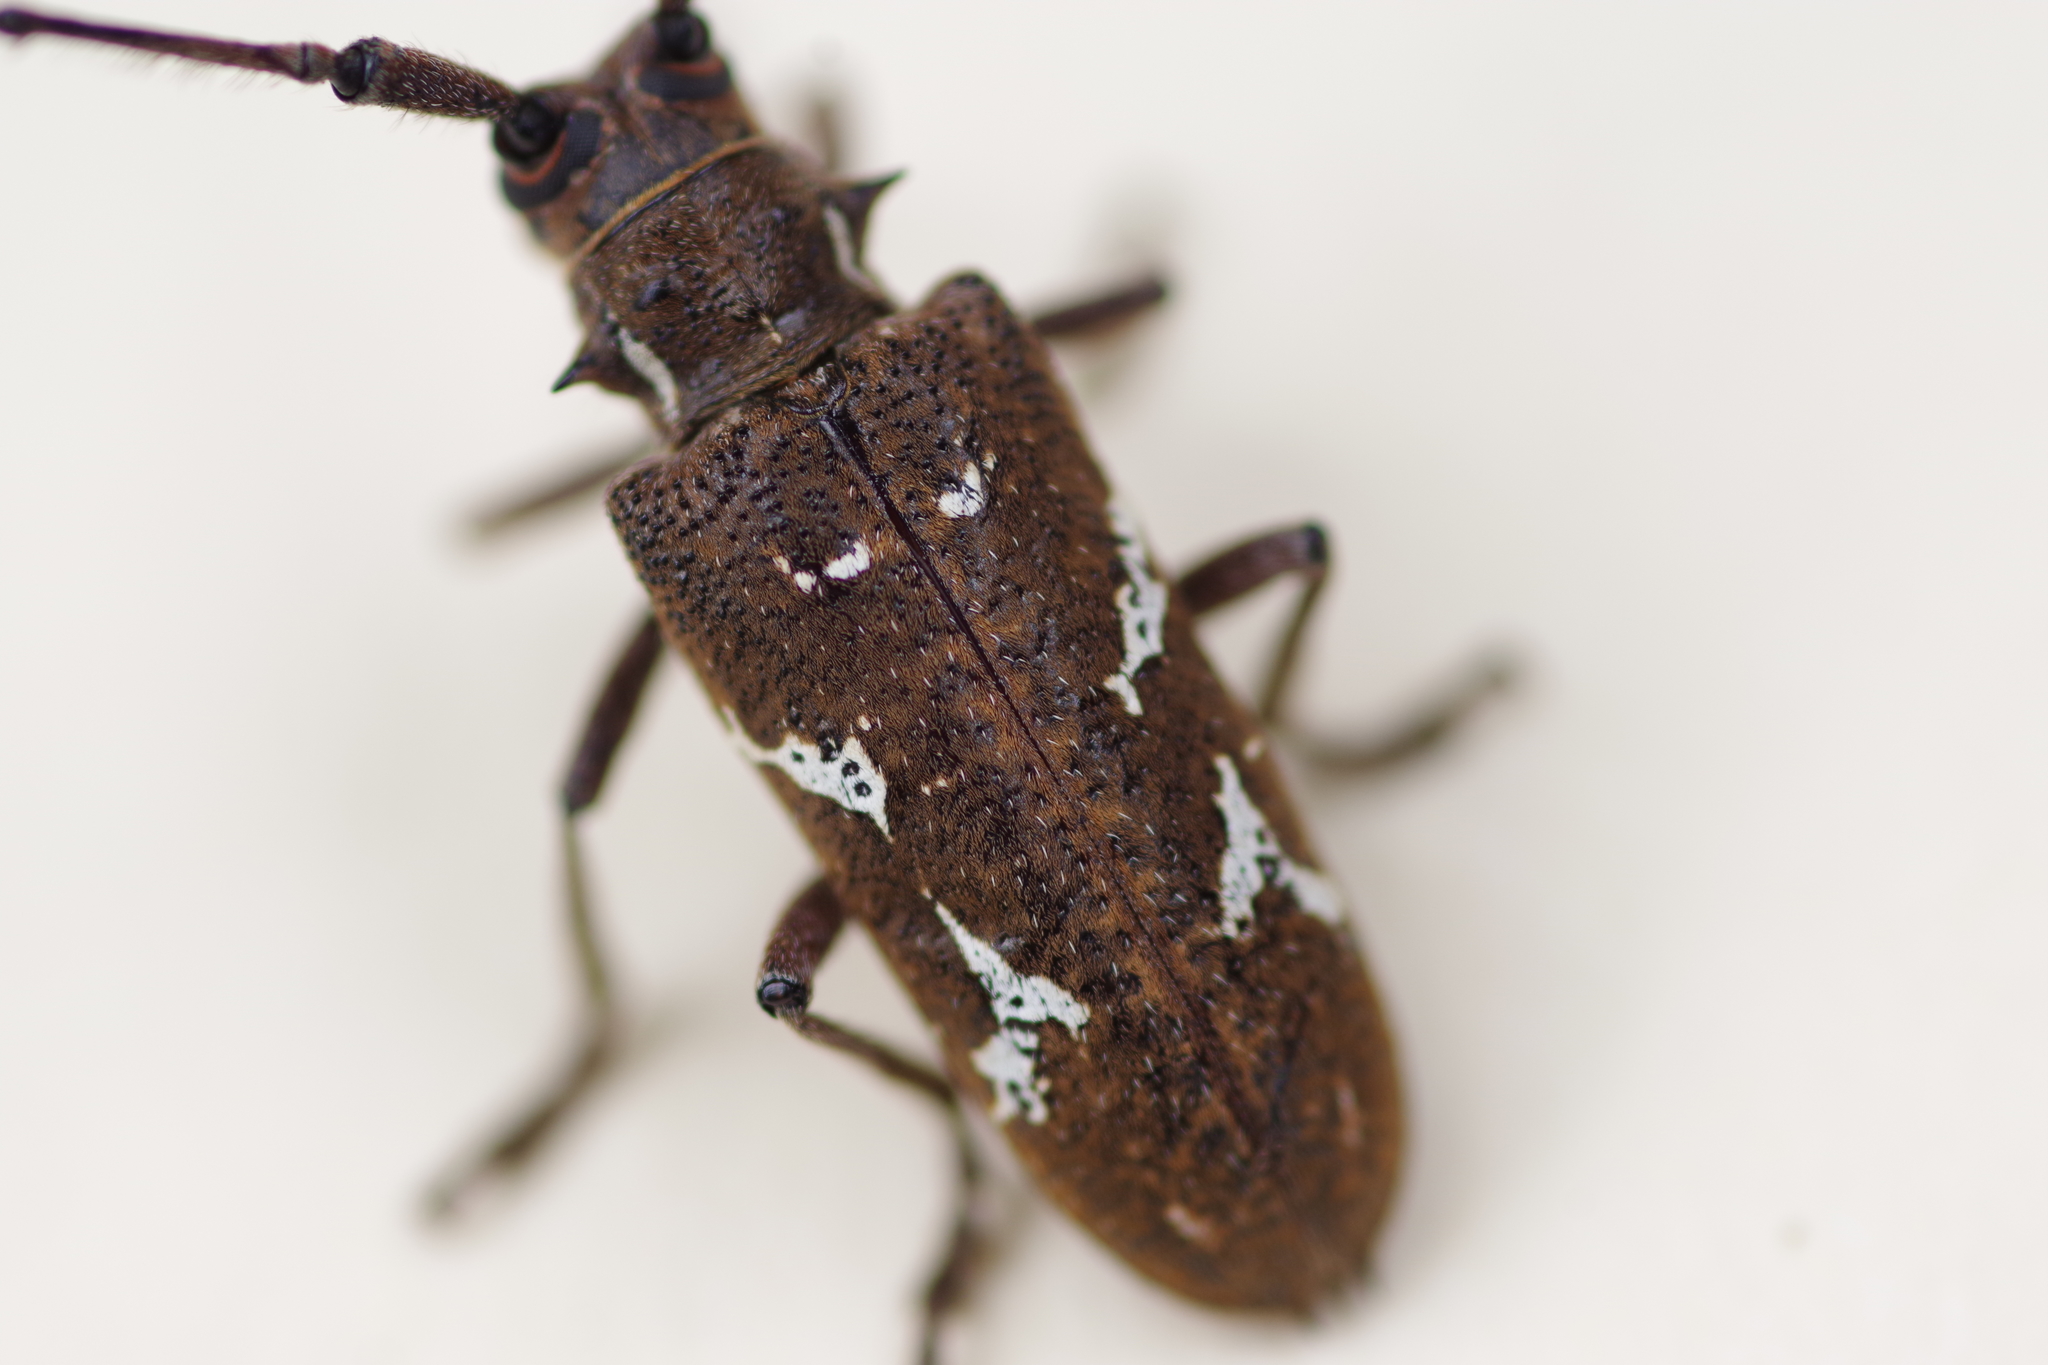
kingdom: Animalia
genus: Hammatoderus
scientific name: Hammatoderus thoracicus
